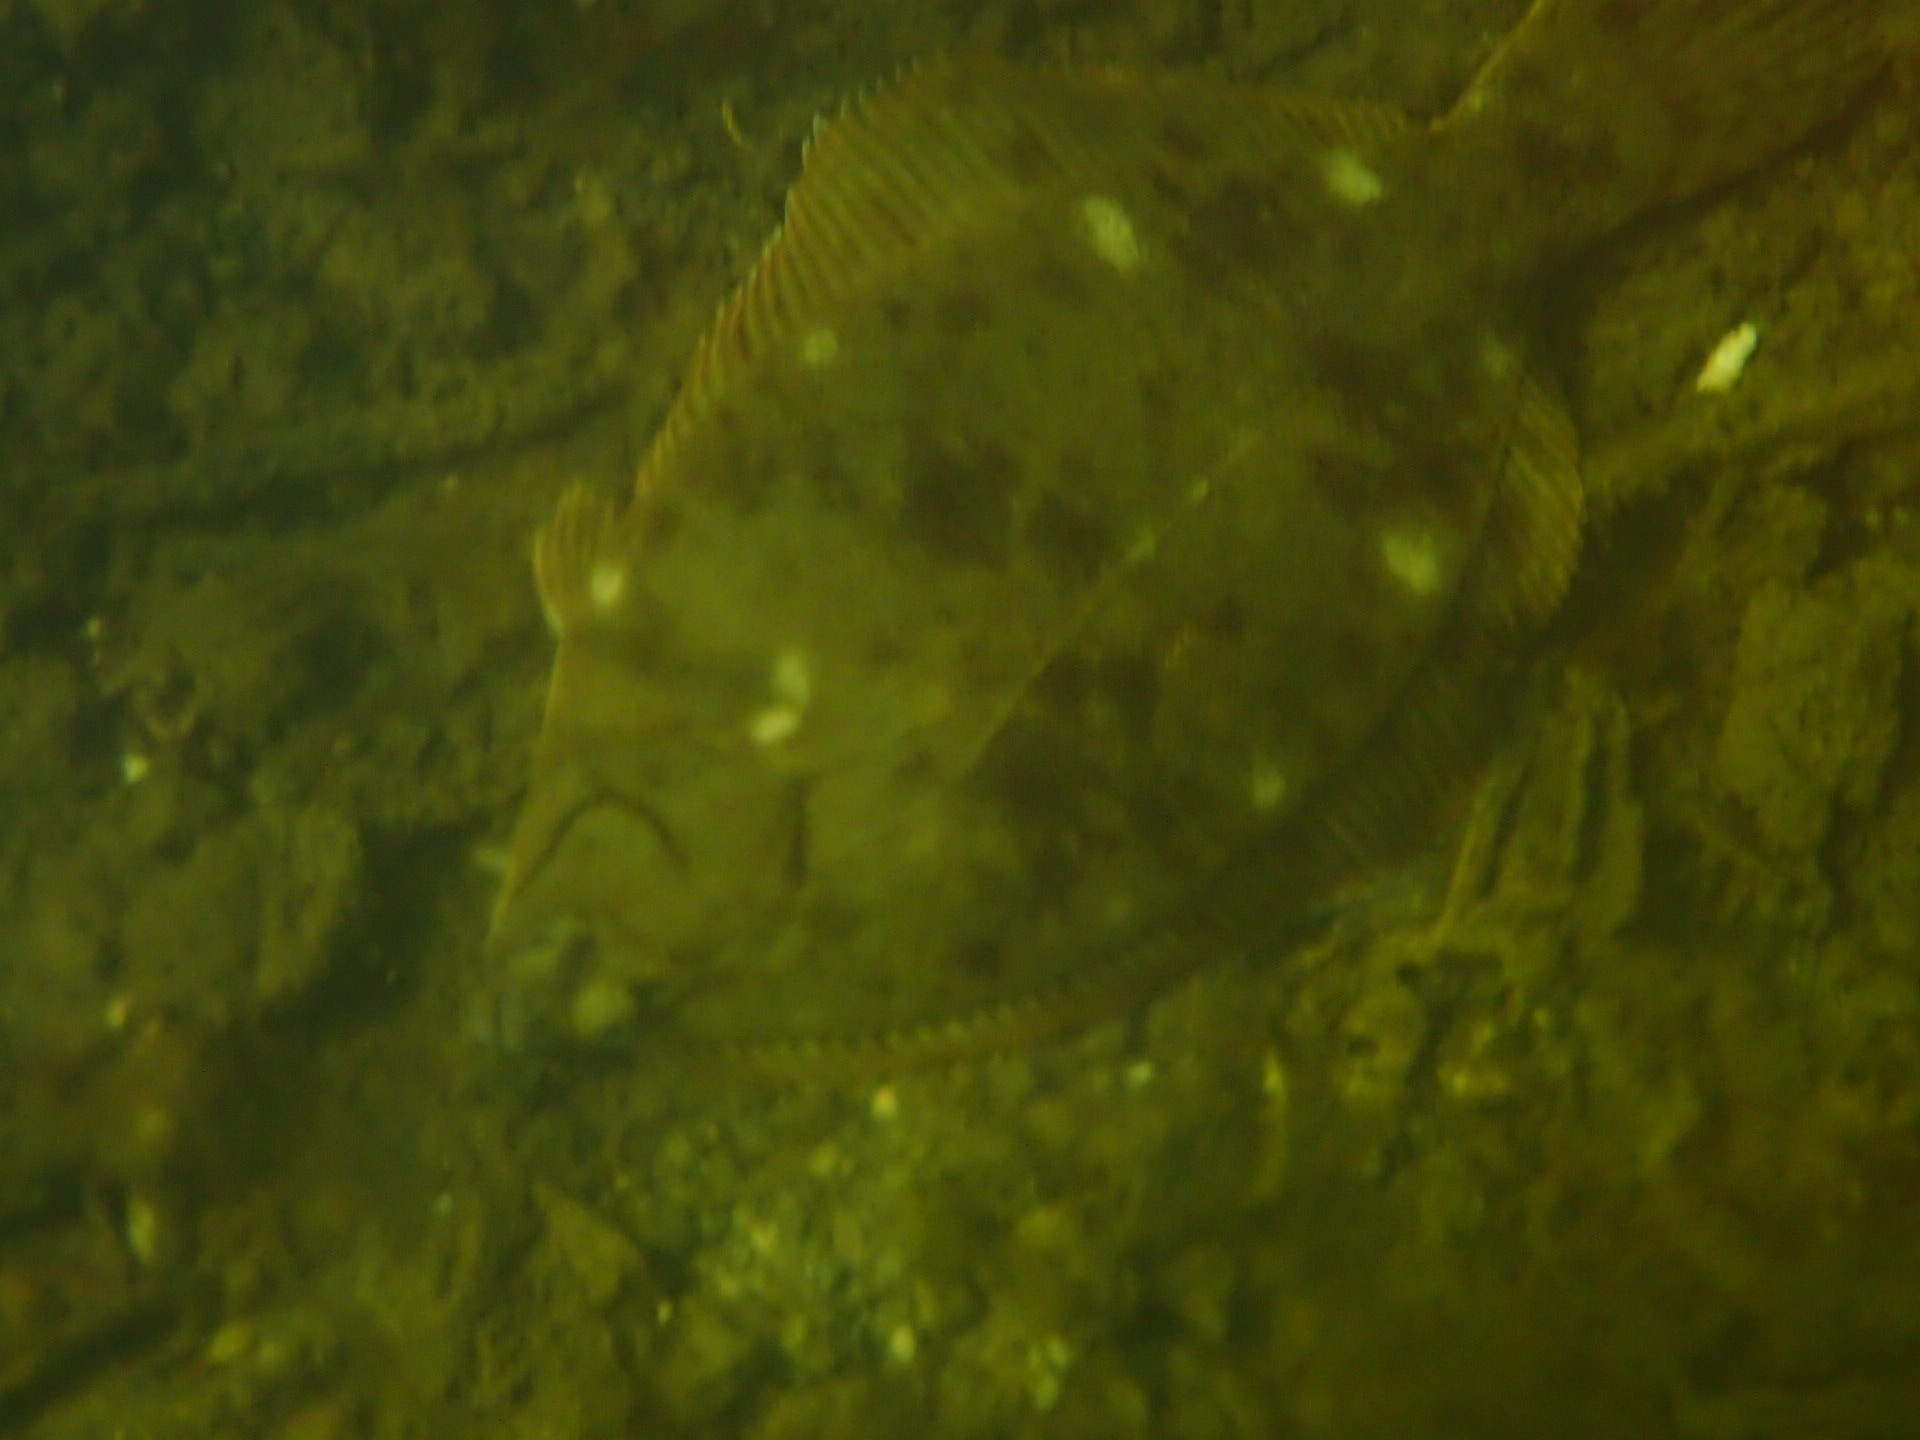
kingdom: Animalia
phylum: Chordata
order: Pleuronectiformes
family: Pleuronectidae
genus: Pseudopleuronectes
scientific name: Pseudopleuronectes americanus
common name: Black backs
